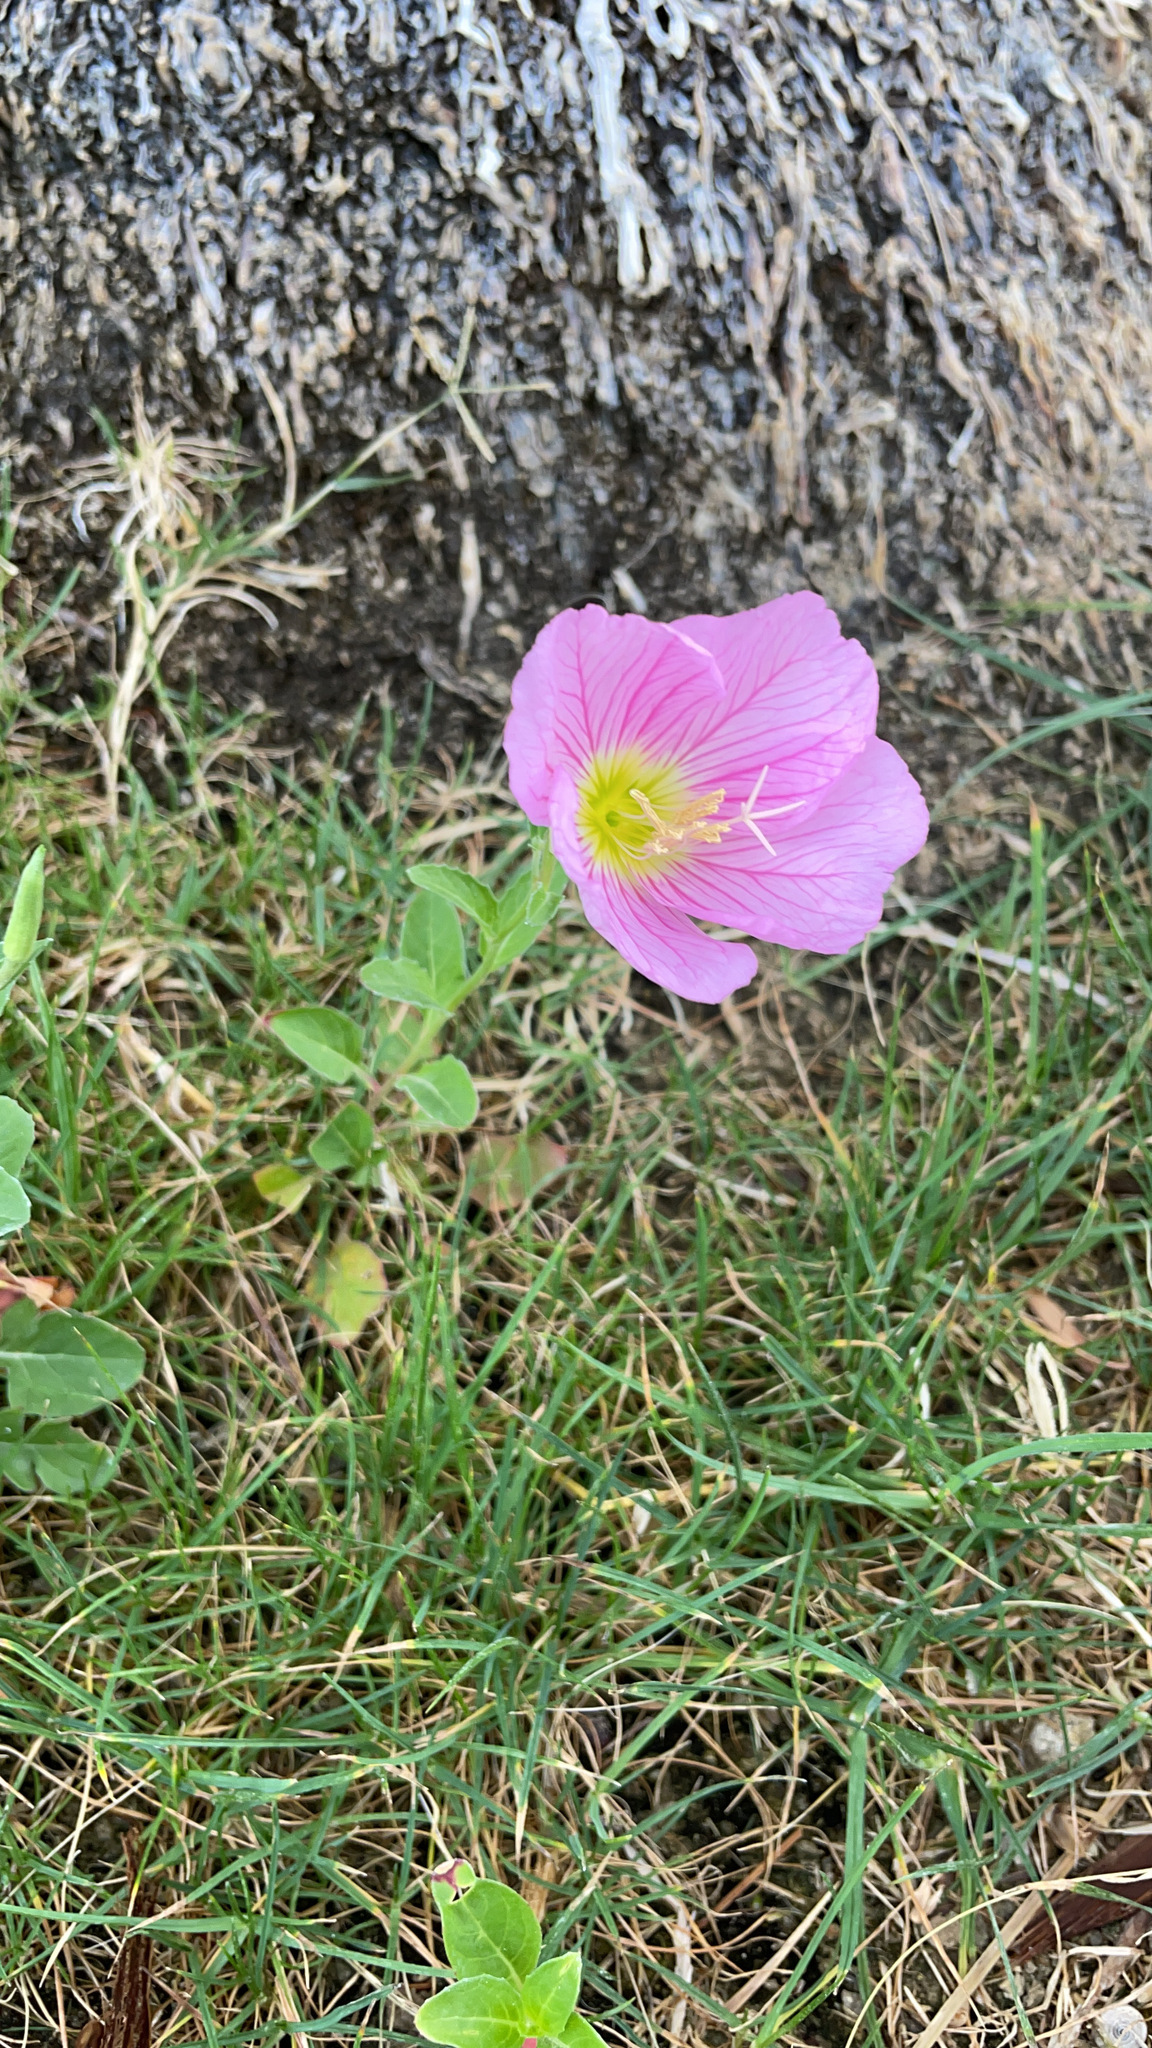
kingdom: Plantae
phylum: Tracheophyta
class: Magnoliopsida
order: Myrtales
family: Onagraceae
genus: Oenothera
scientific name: Oenothera speciosa
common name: White evening-primrose
